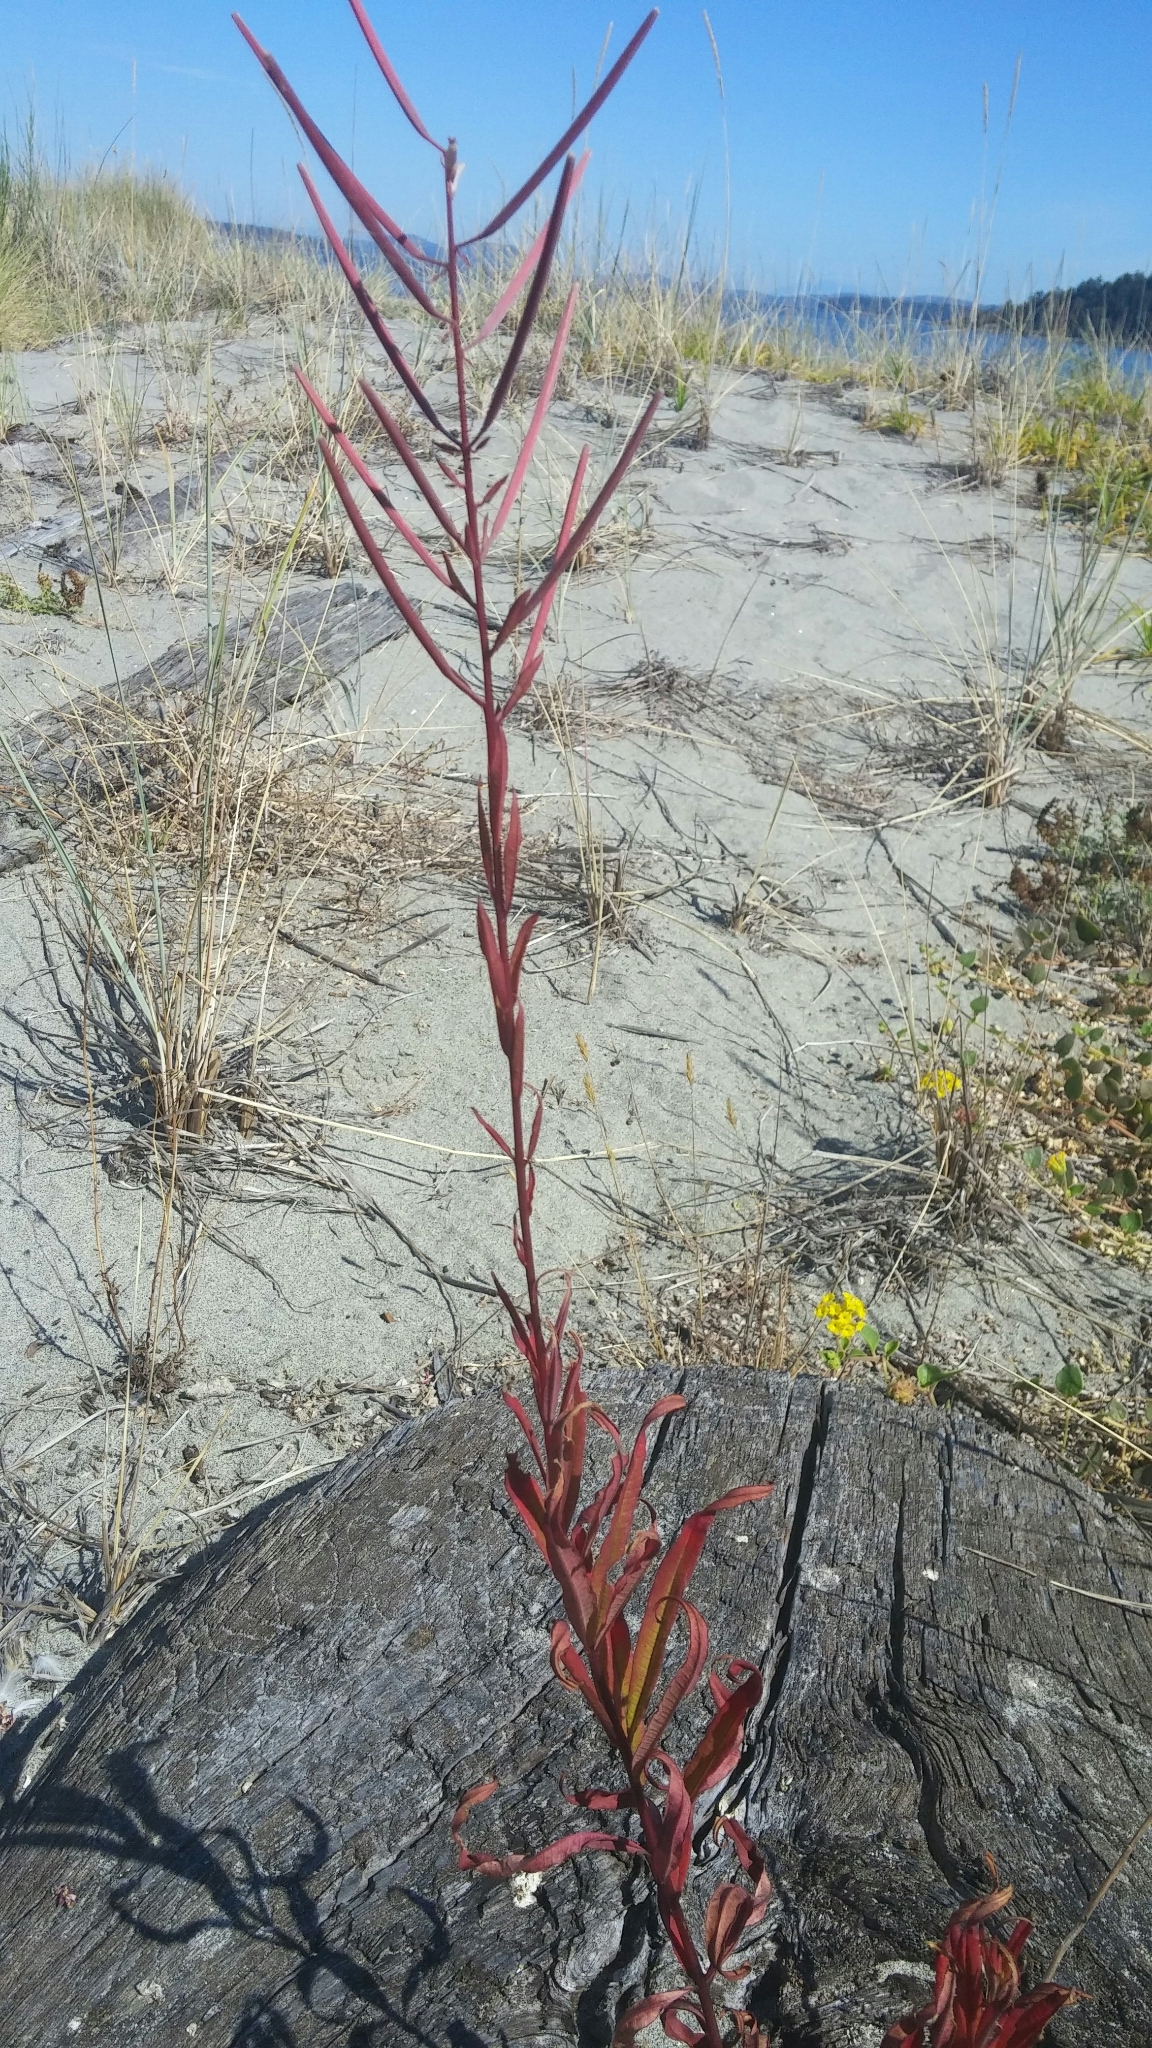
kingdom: Plantae
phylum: Tracheophyta
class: Magnoliopsida
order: Myrtales
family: Onagraceae
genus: Chamaenerion
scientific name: Chamaenerion angustifolium
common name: Fireweed
